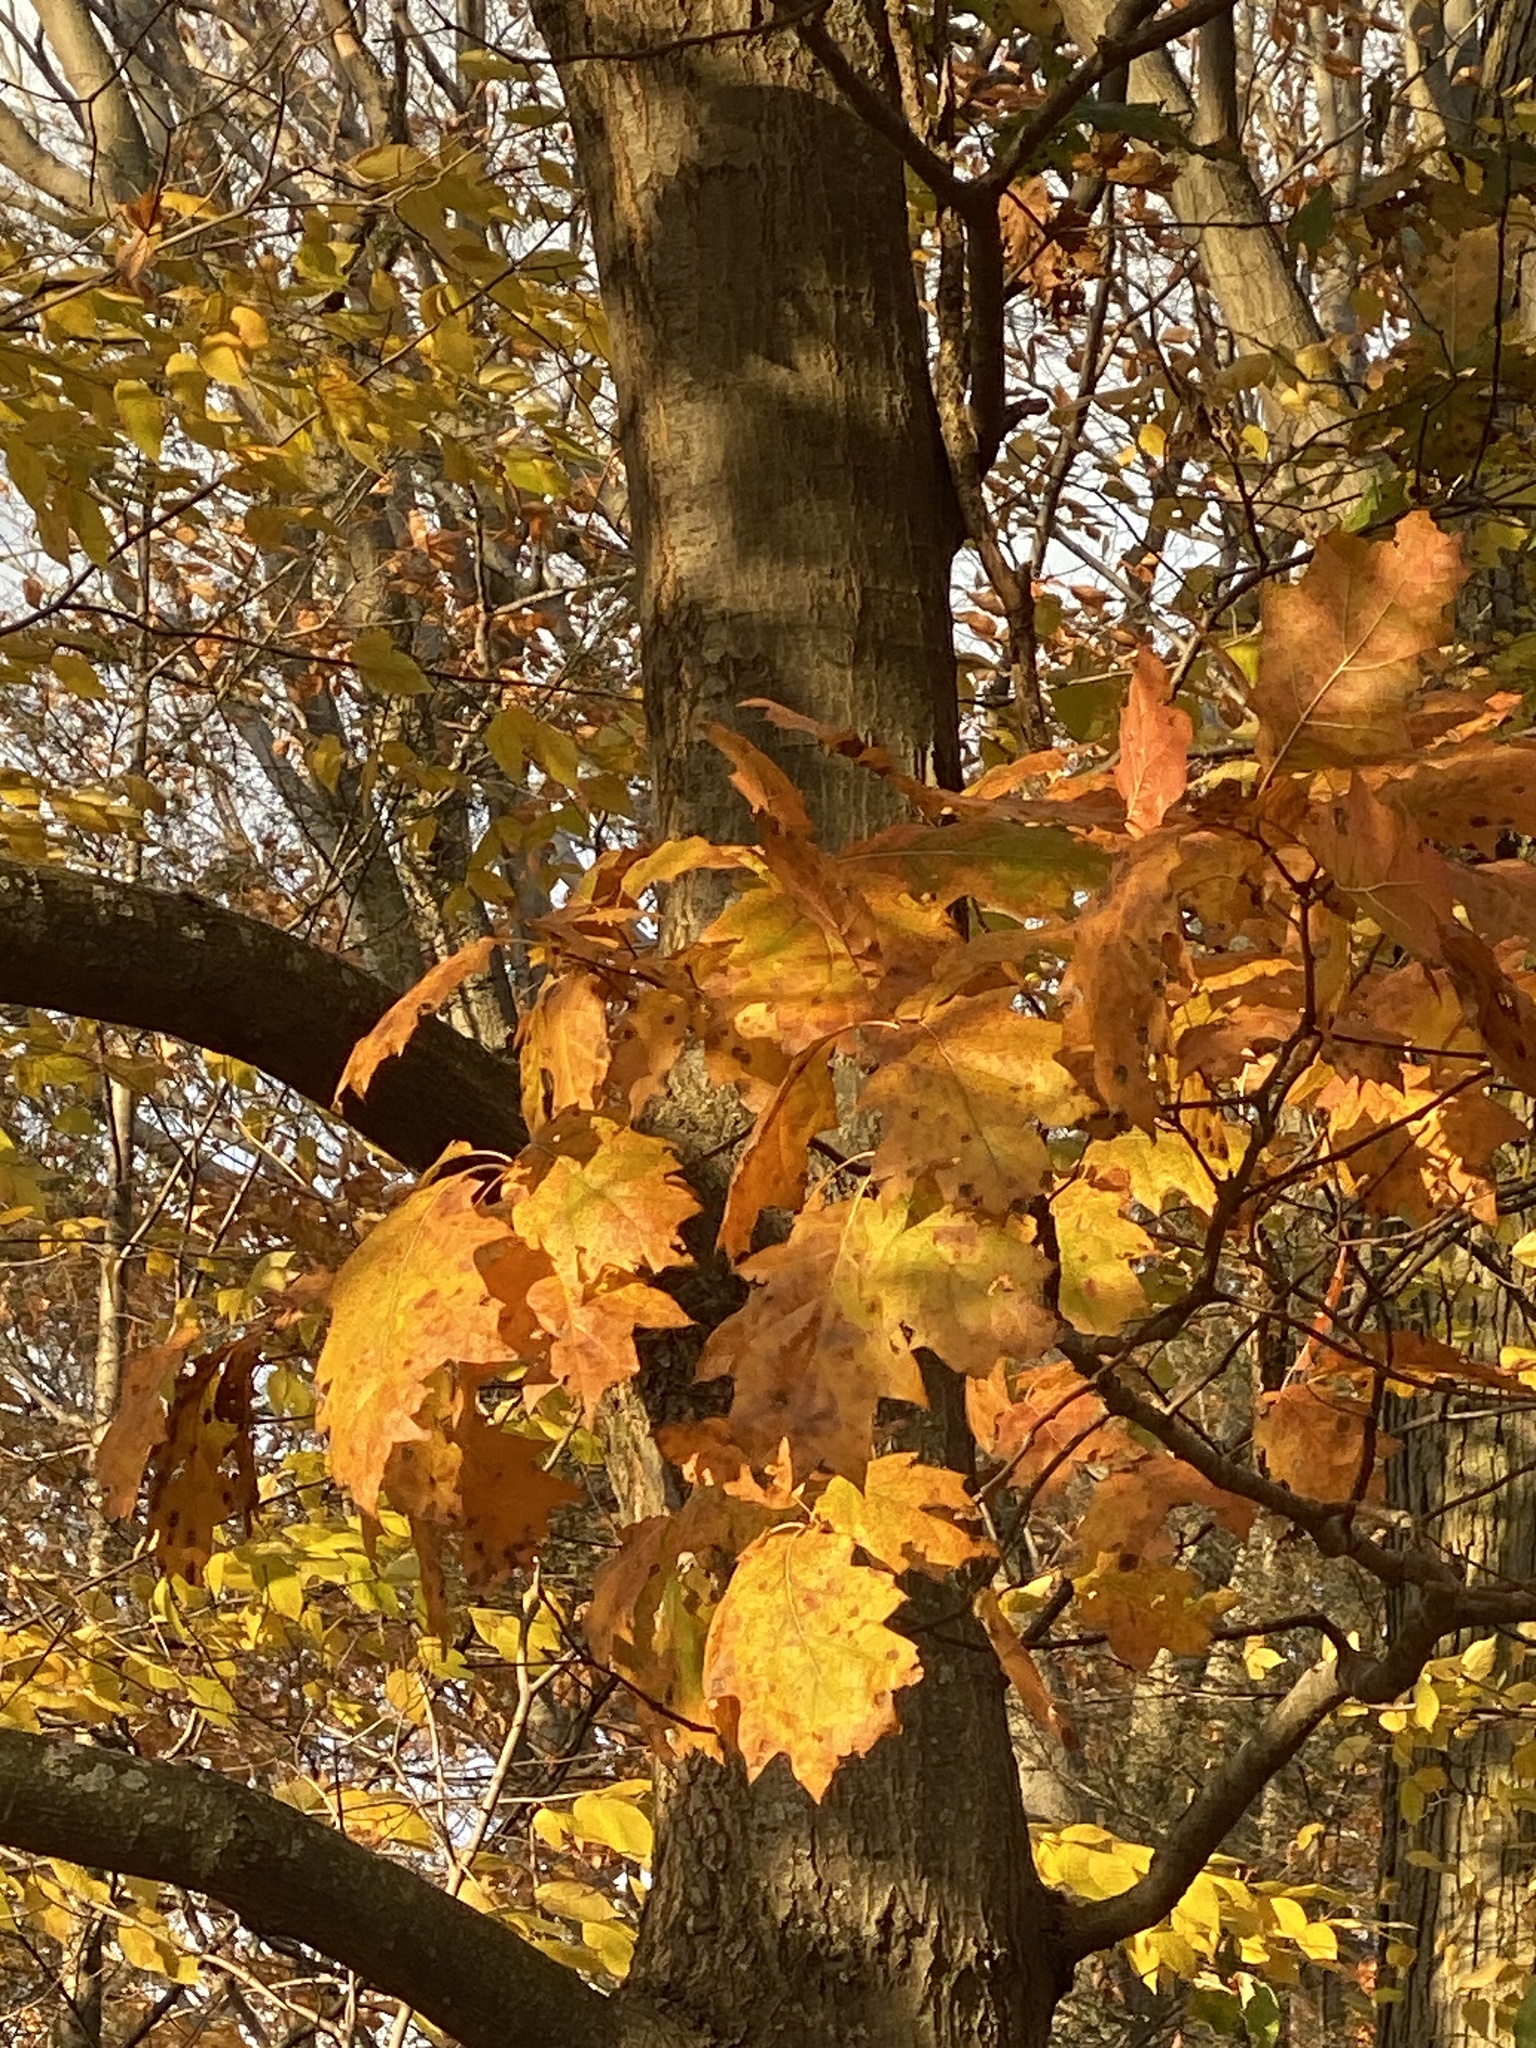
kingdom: Plantae
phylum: Tracheophyta
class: Magnoliopsida
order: Fagales
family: Fagaceae
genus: Quercus
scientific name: Quercus rubra
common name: Red oak
